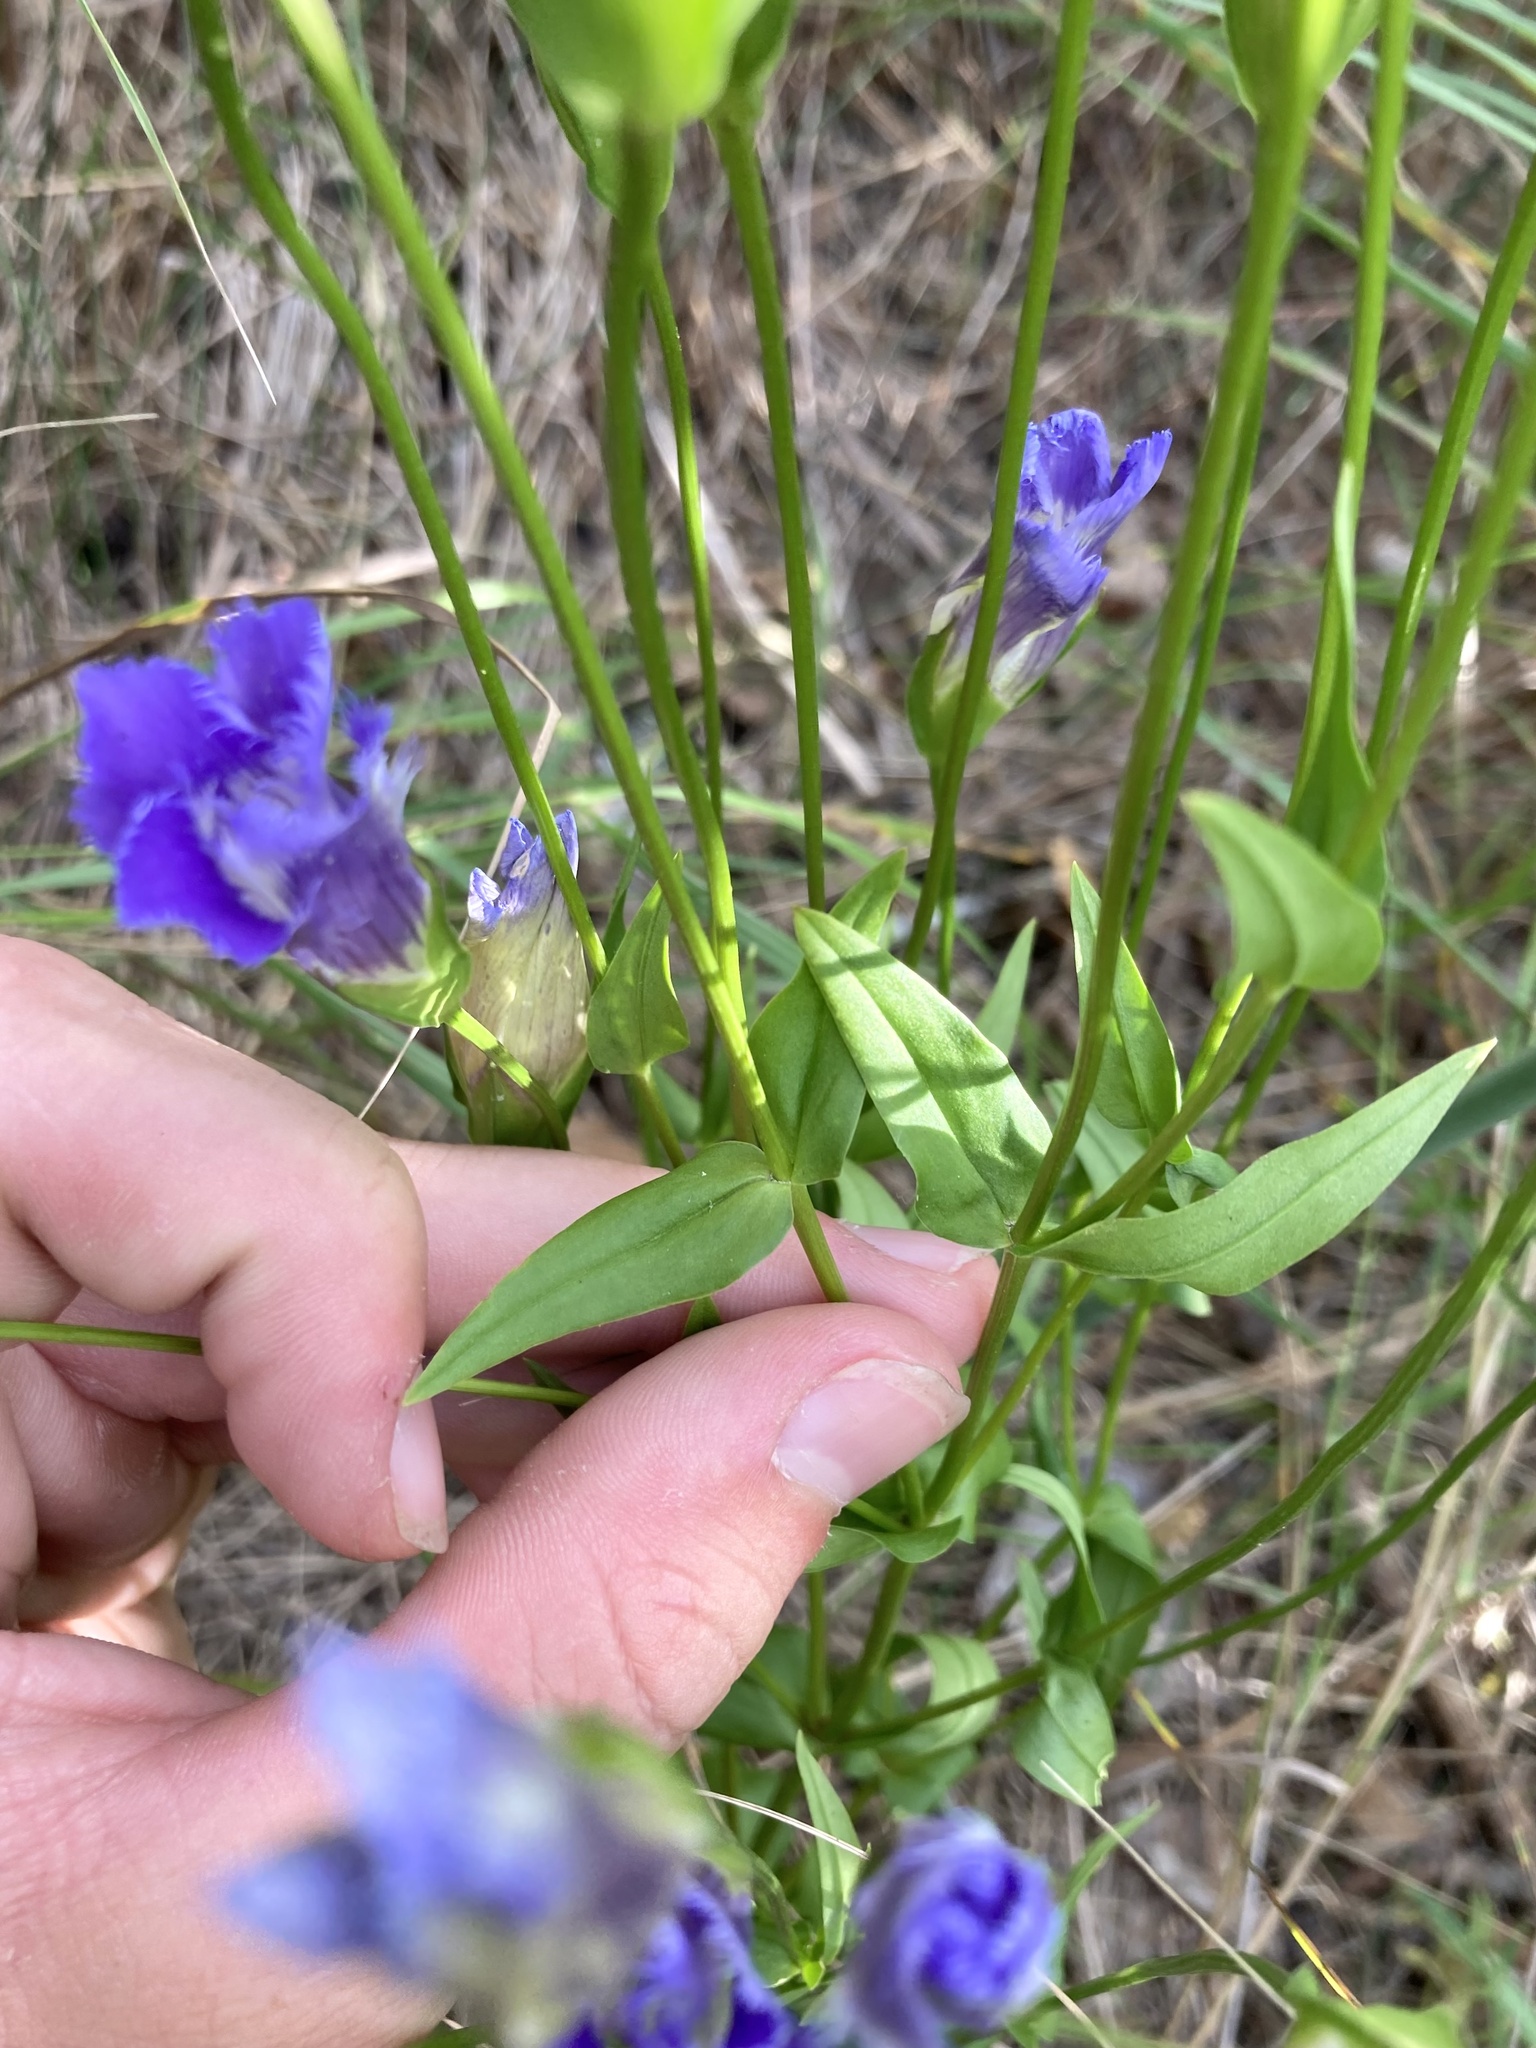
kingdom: Plantae
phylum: Tracheophyta
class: Magnoliopsida
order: Gentianales
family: Gentianaceae
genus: Gentianopsis
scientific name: Gentianopsis crinita
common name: Fringed-gentian
